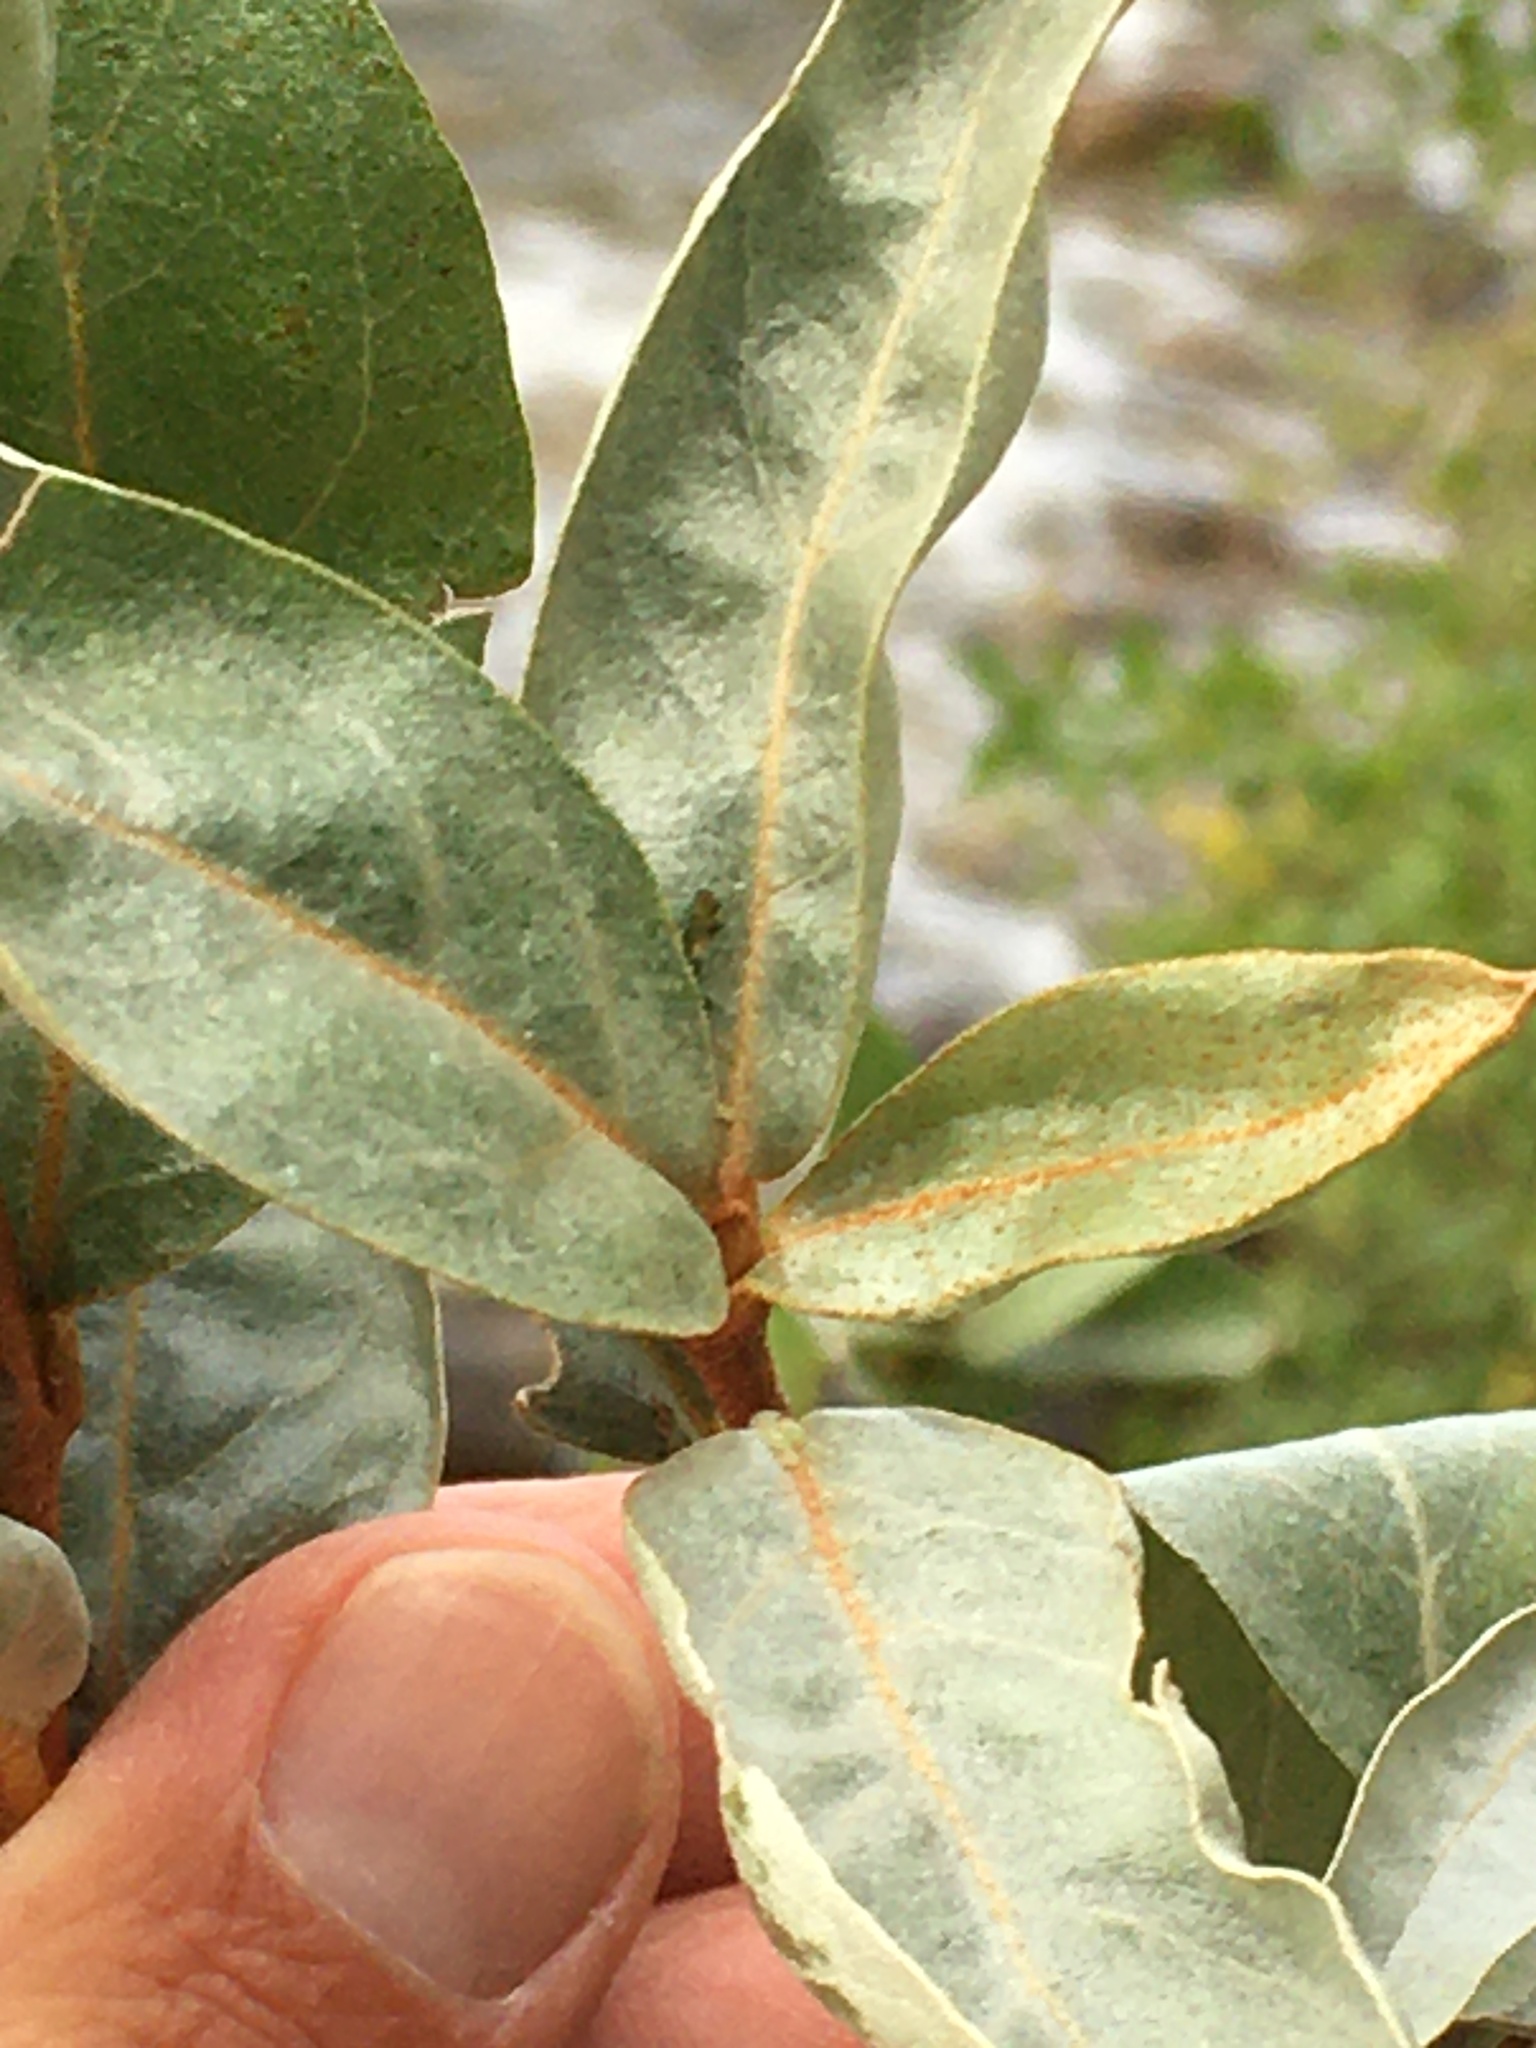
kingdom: Plantae
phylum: Tracheophyta
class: Magnoliopsida
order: Rosales
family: Elaeagnaceae
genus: Elaeagnus
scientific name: Elaeagnus commutata
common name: Silverberry
